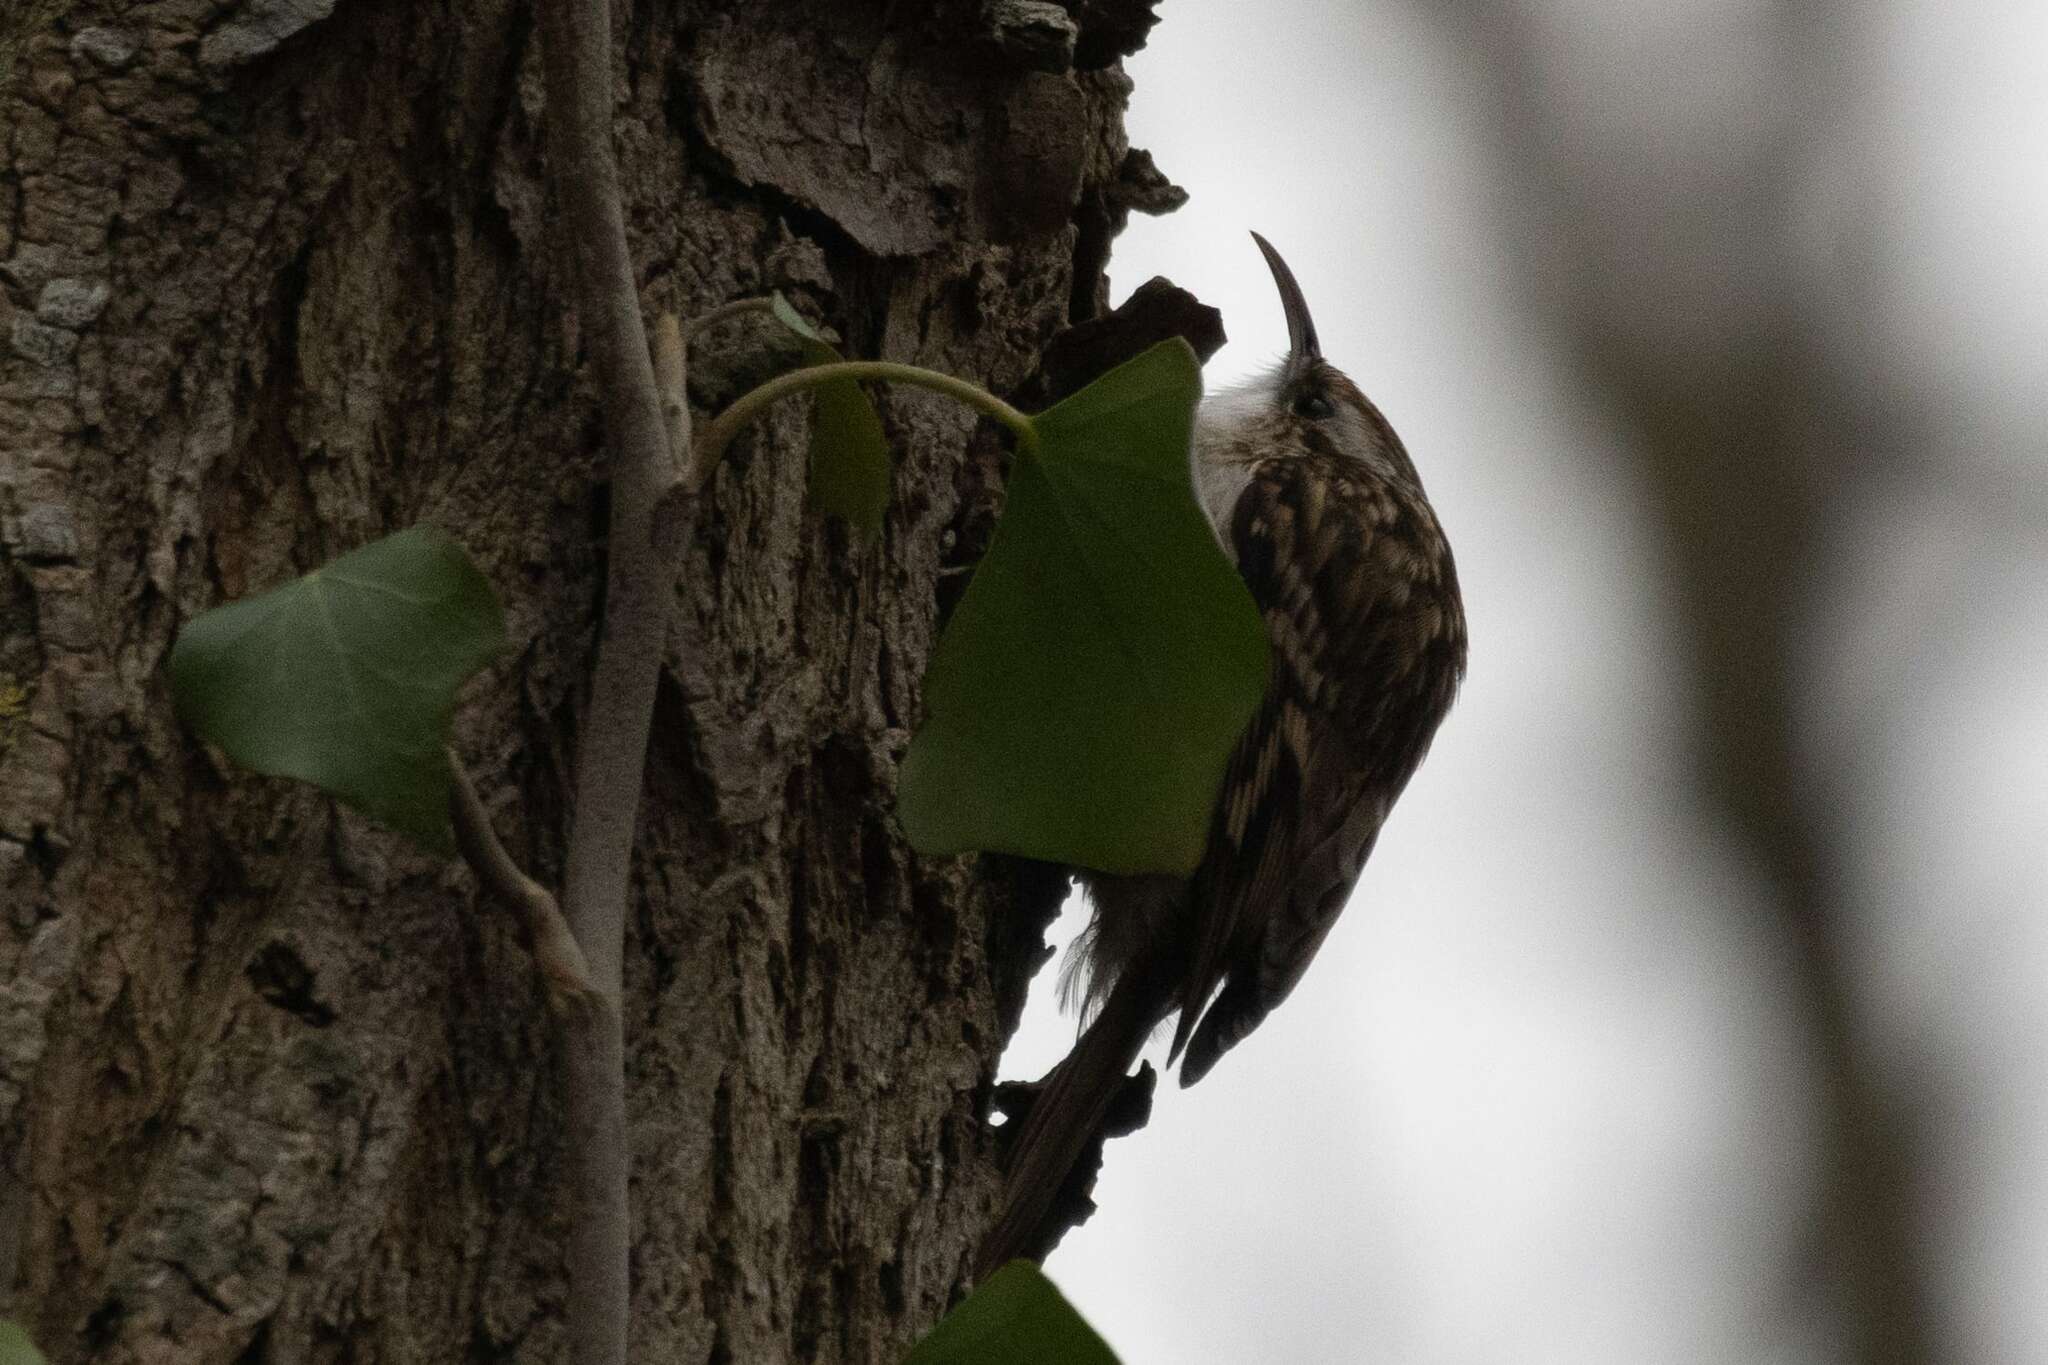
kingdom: Animalia
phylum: Chordata
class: Aves
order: Passeriformes
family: Certhiidae
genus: Certhia
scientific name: Certhia brachydactyla
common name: Short-toed treecreeper
